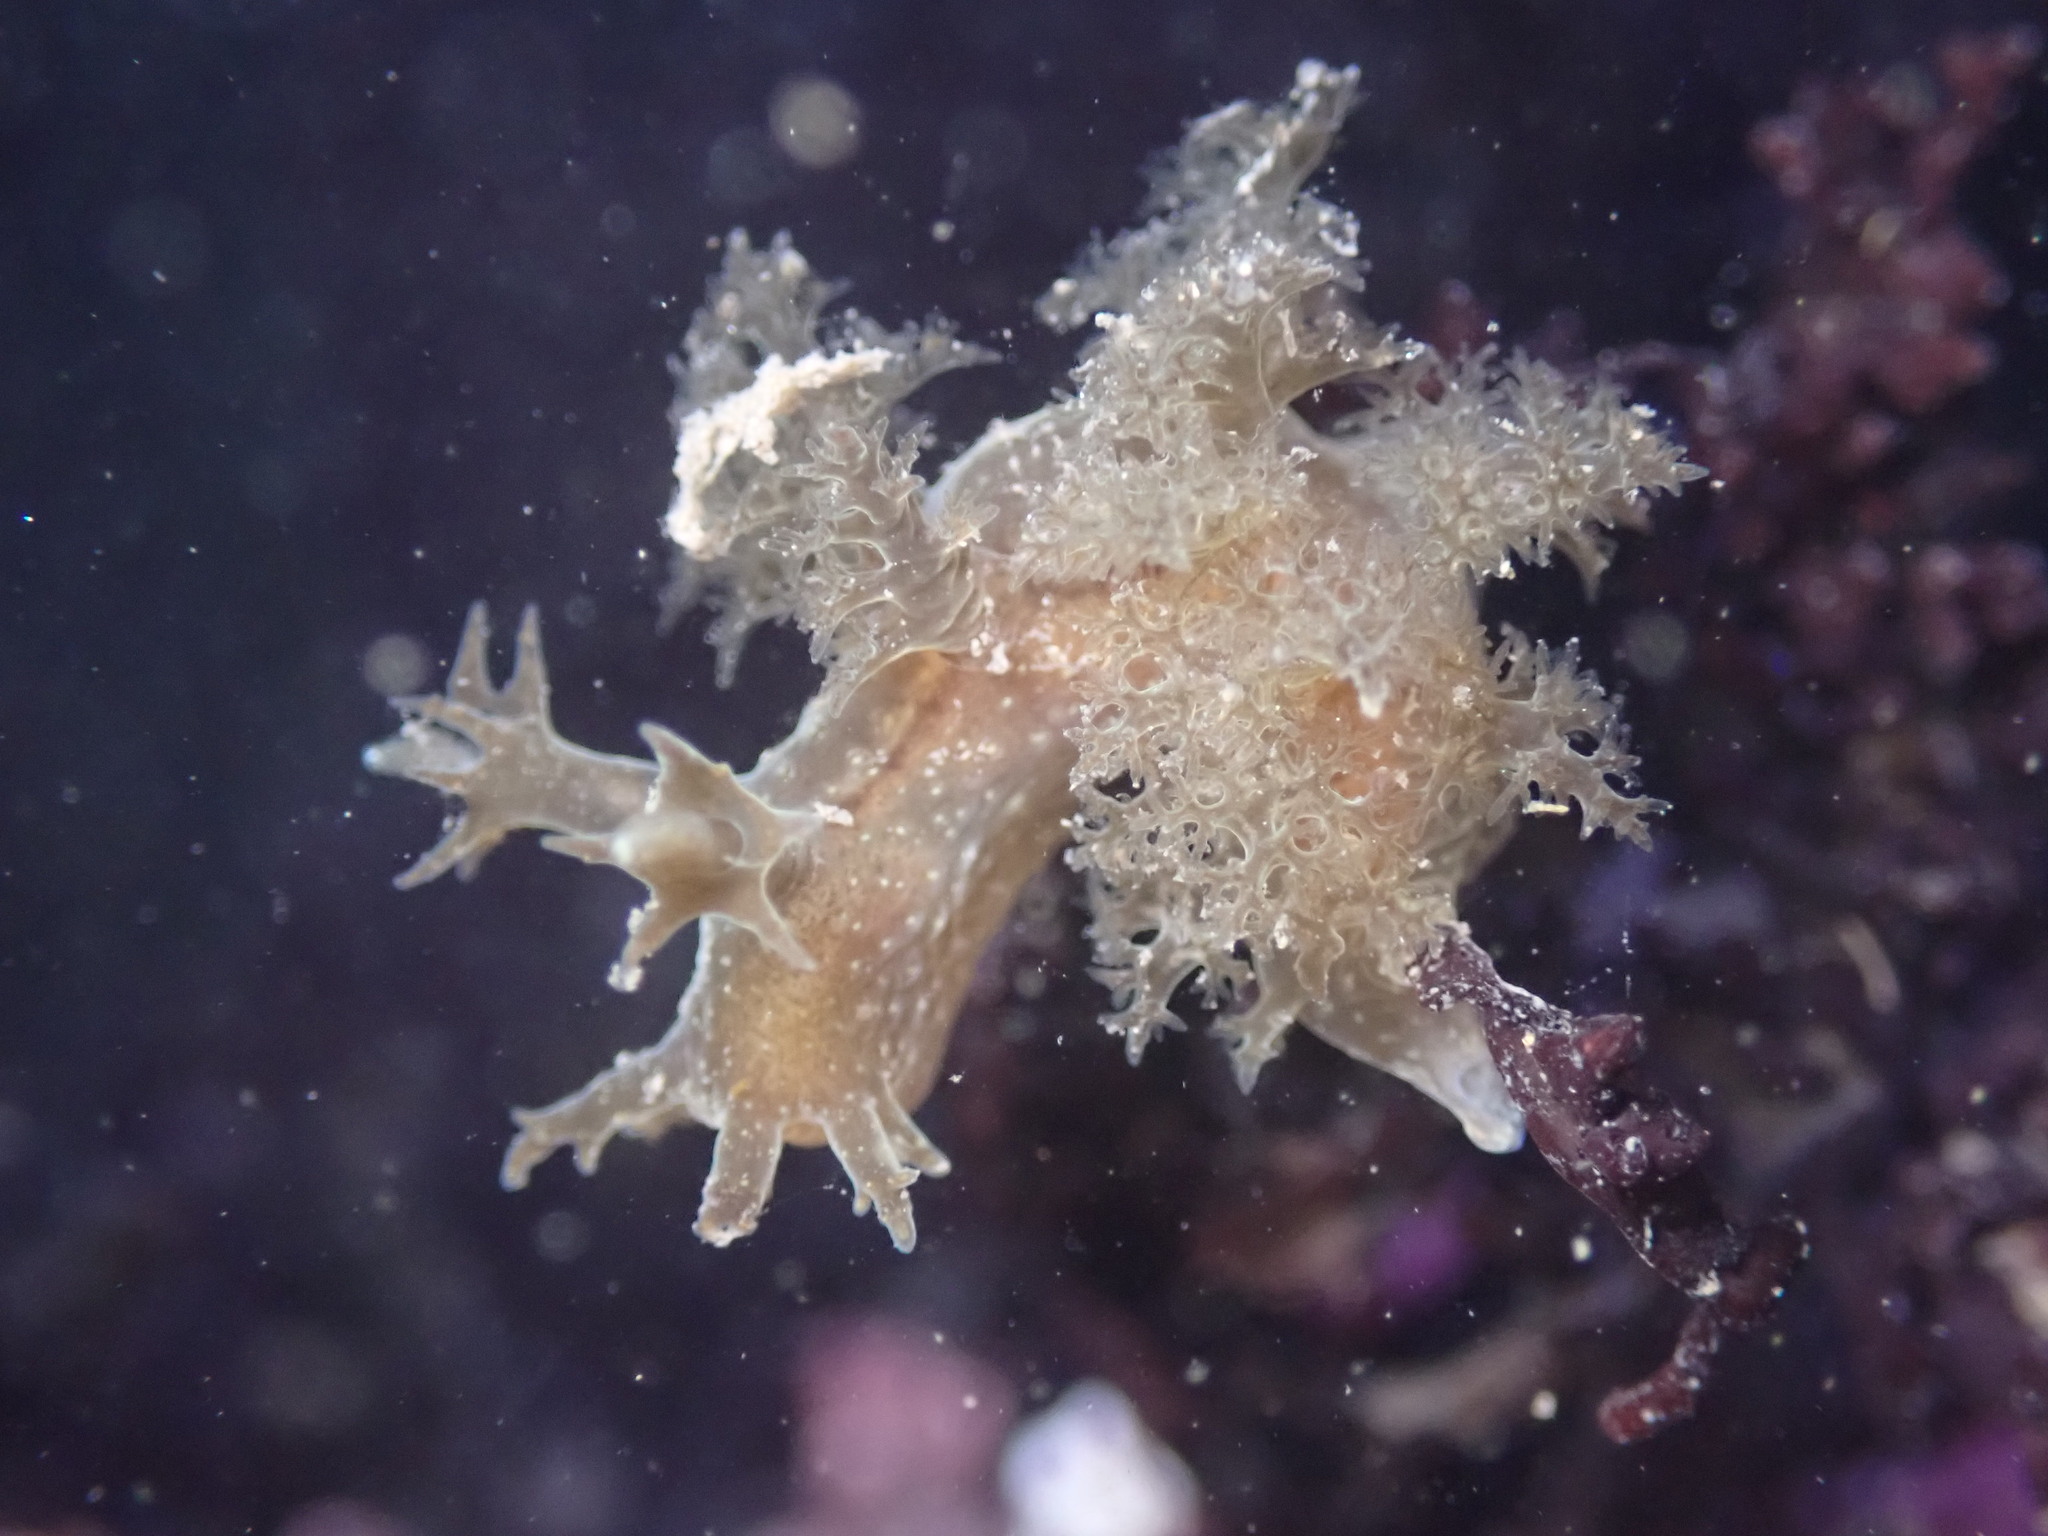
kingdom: Animalia
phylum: Mollusca
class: Gastropoda
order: Nudibranchia
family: Dendronotidae
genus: Dendronotus
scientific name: Dendronotus subramosus
